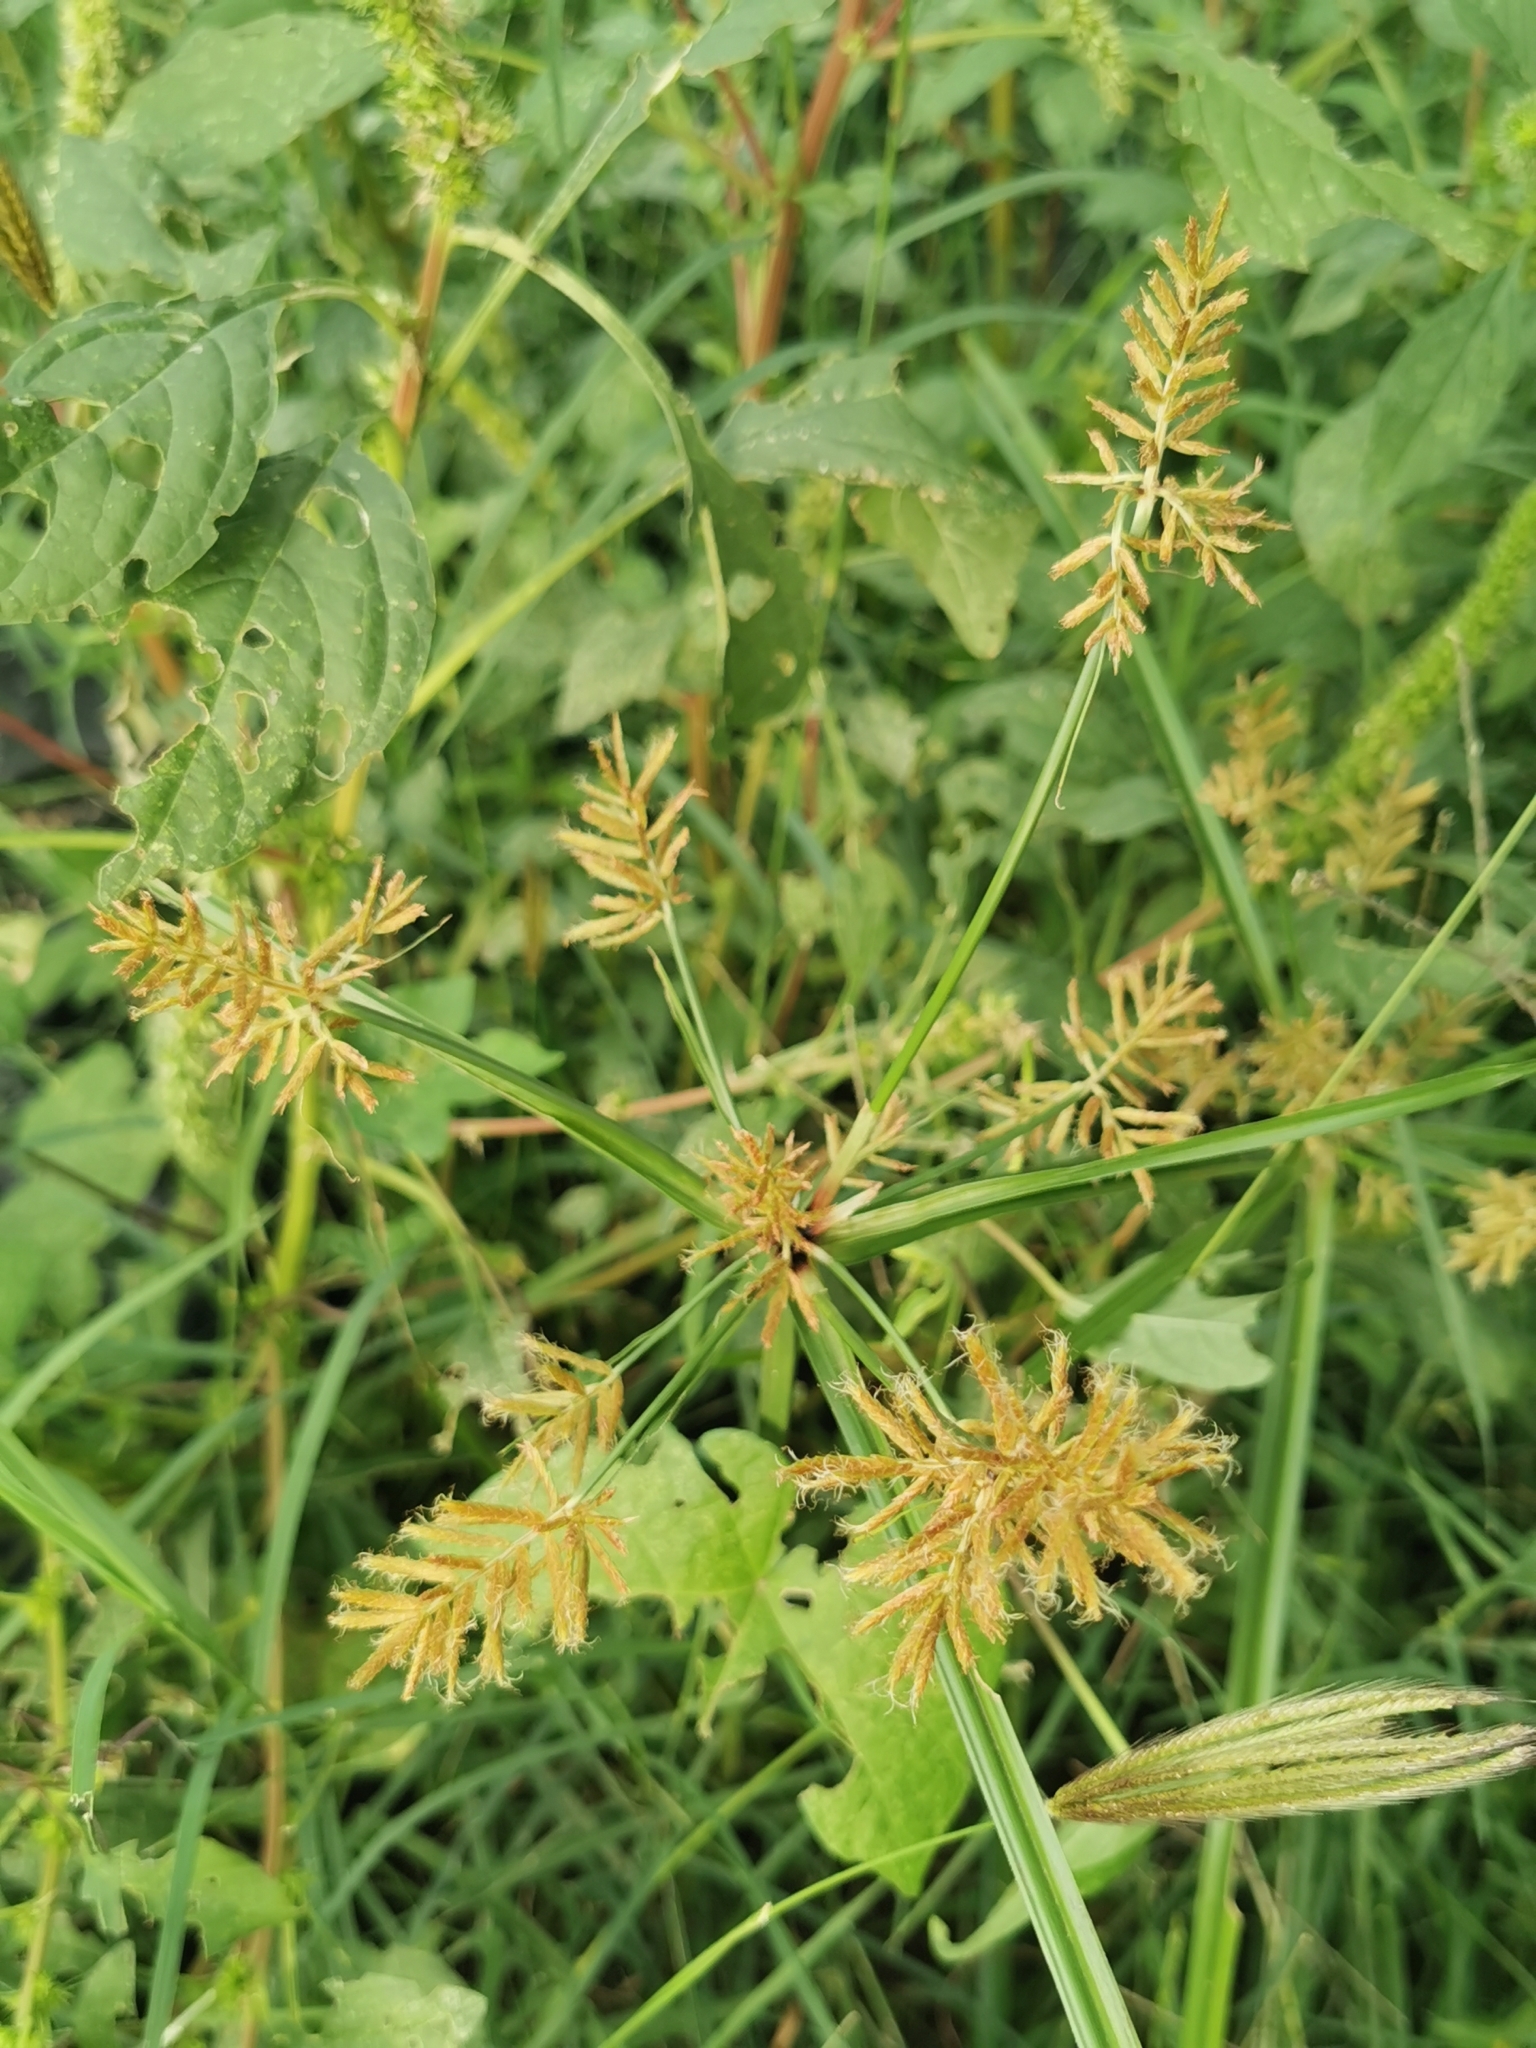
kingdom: Plantae
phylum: Tracheophyta
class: Liliopsida
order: Poales
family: Cyperaceae
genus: Cyperus
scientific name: Cyperus esculentus
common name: Yellow nutsedge
